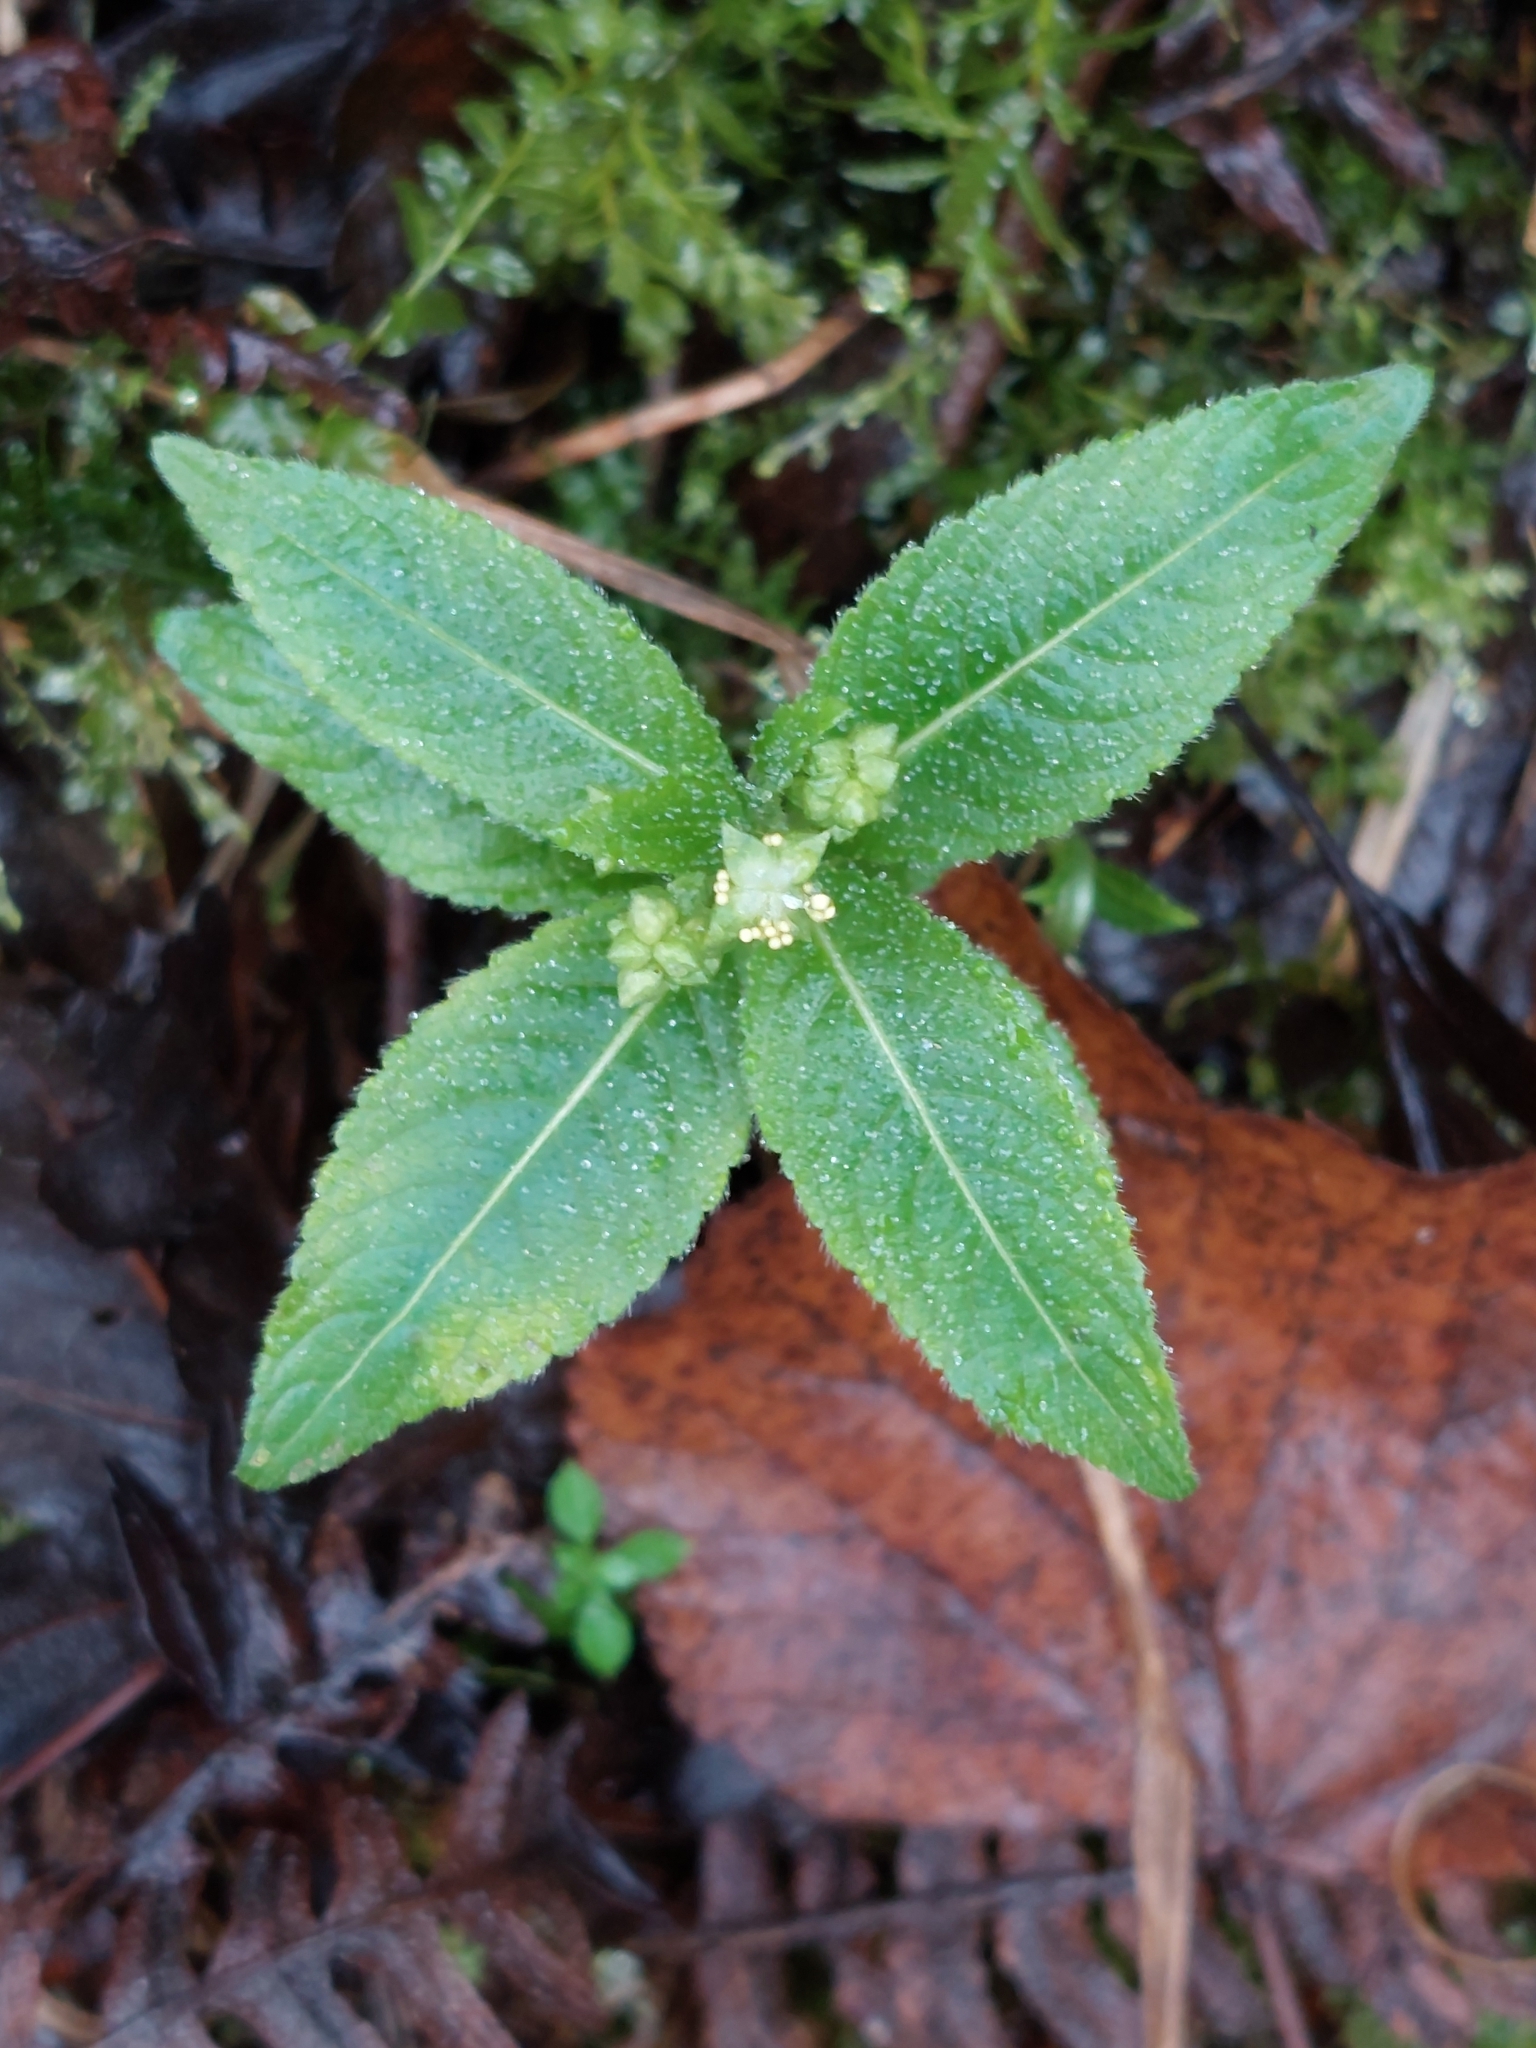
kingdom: Plantae
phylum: Tracheophyta
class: Magnoliopsida
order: Malpighiales
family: Euphorbiaceae
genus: Mercurialis
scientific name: Mercurialis perennis
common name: Dog mercury
